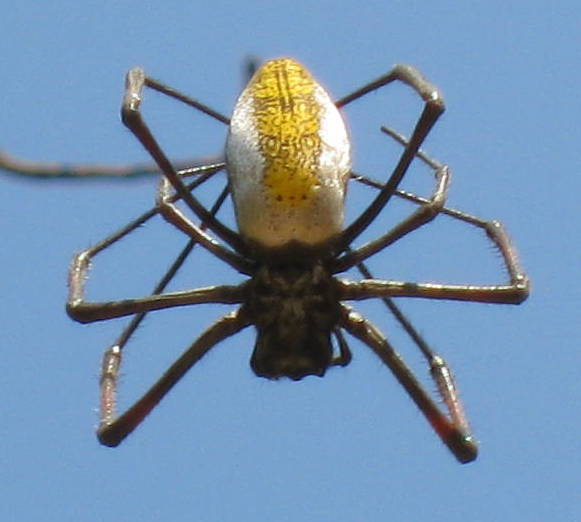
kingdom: Animalia
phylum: Arthropoda
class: Arachnida
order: Araneae
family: Araneidae
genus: Trichonephila
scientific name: Trichonephila inaurata
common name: Red-legged golden orb weaver
